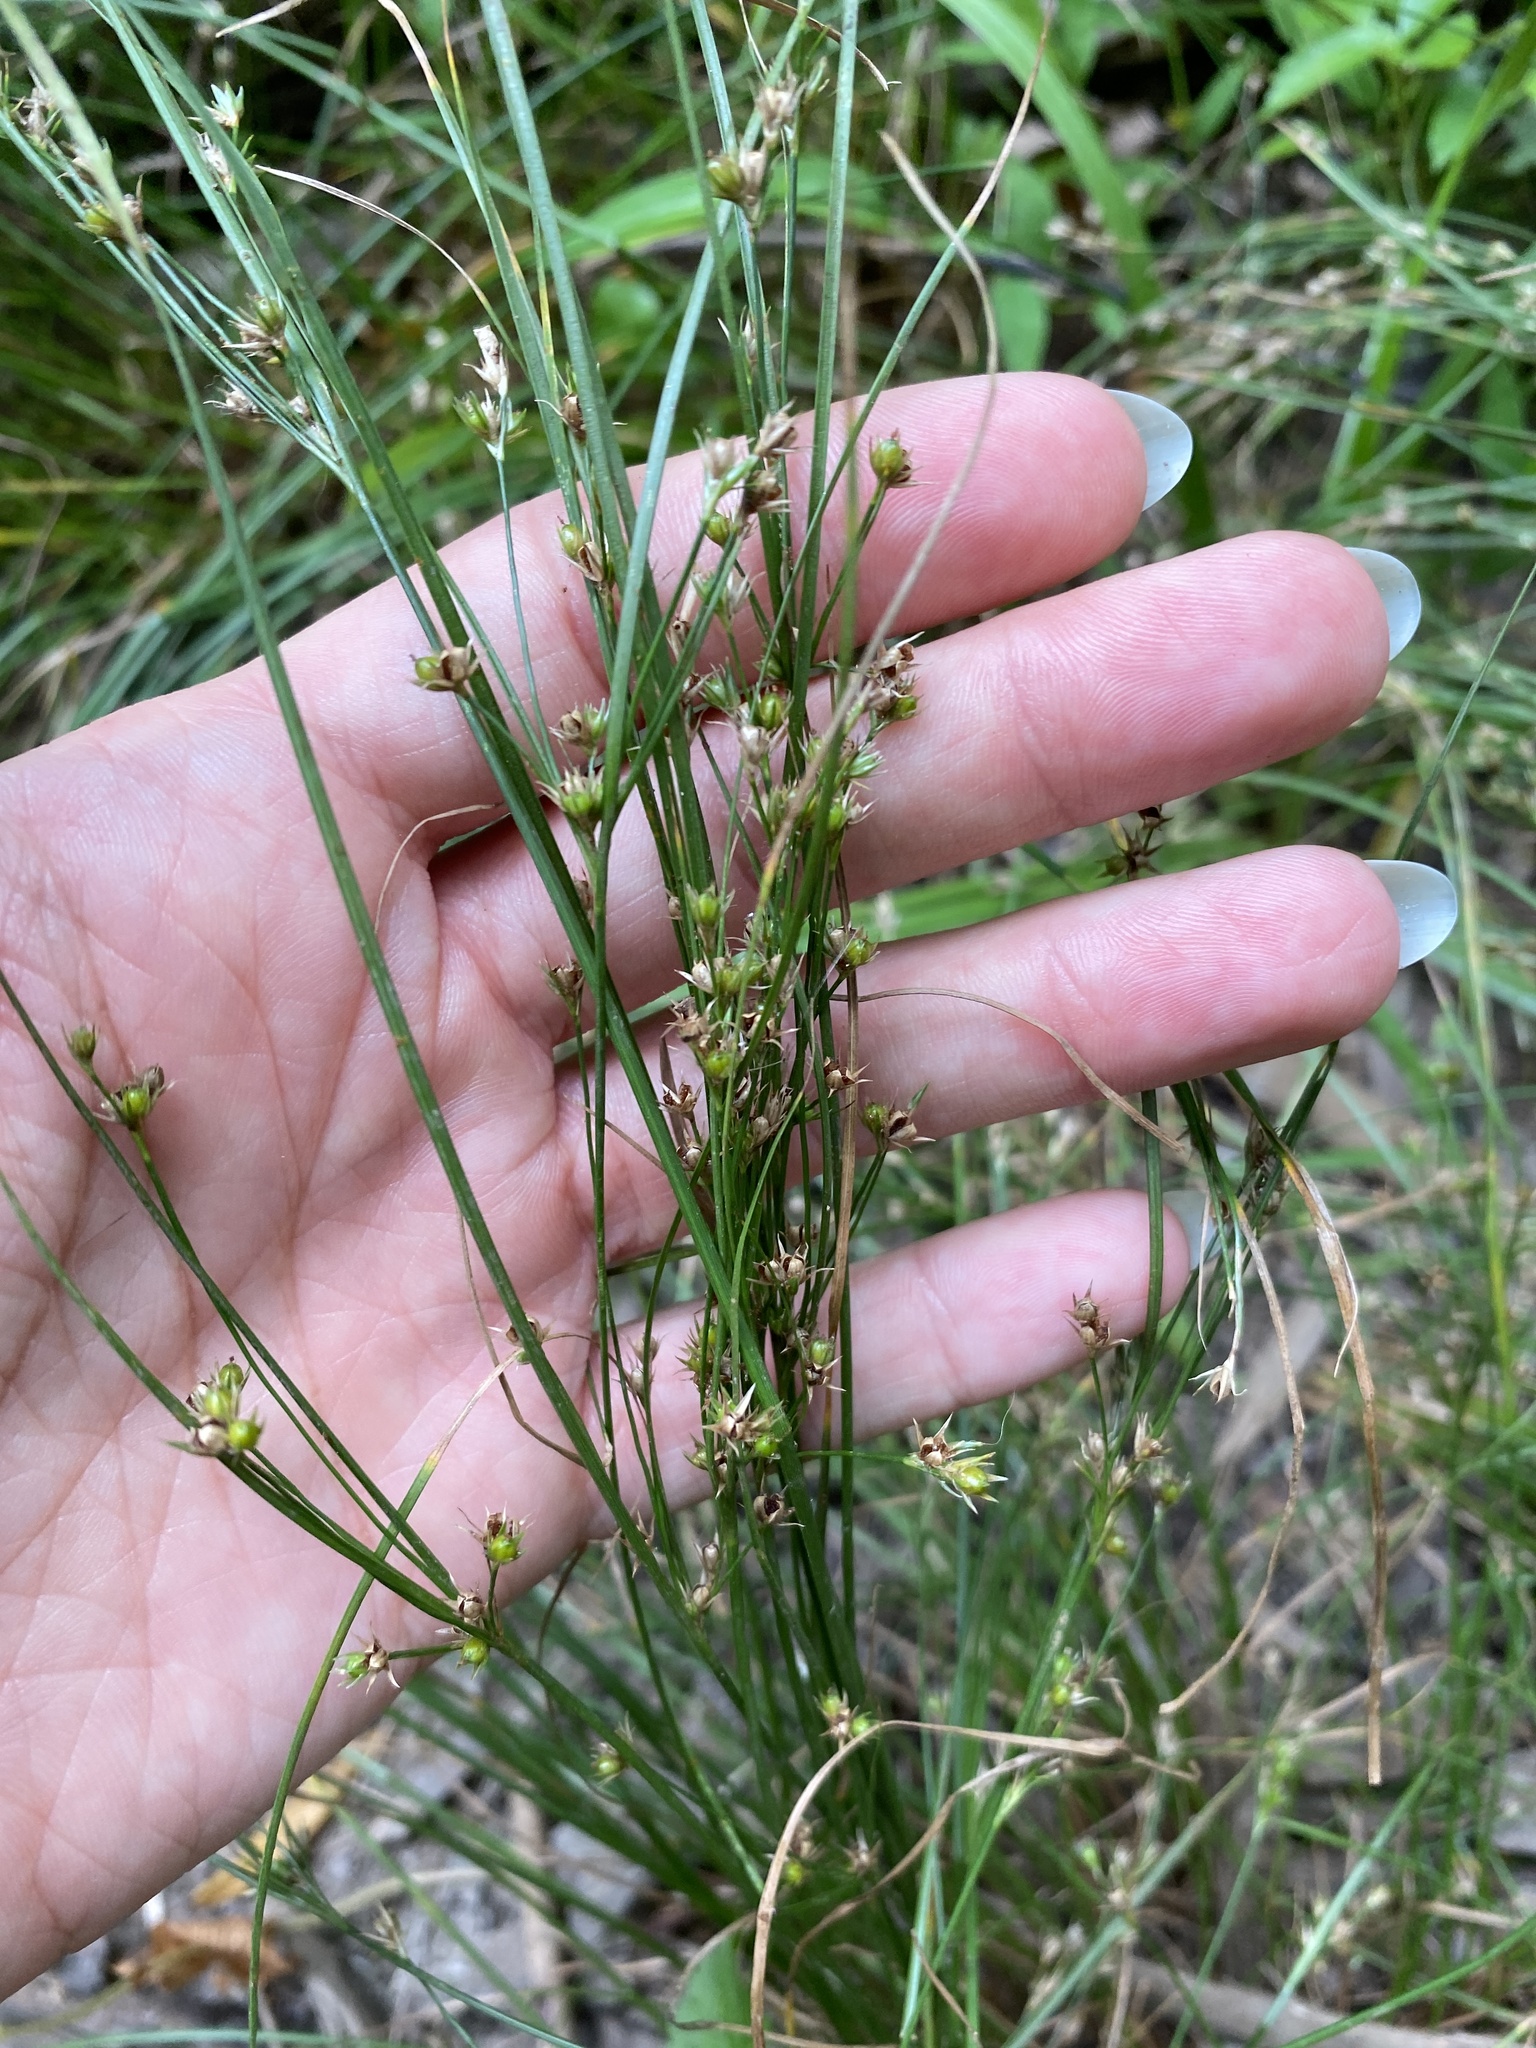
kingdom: Plantae
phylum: Tracheophyta
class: Liliopsida
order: Poales
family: Juncaceae
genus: Juncus
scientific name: Juncus tenuis
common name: Slender rush
